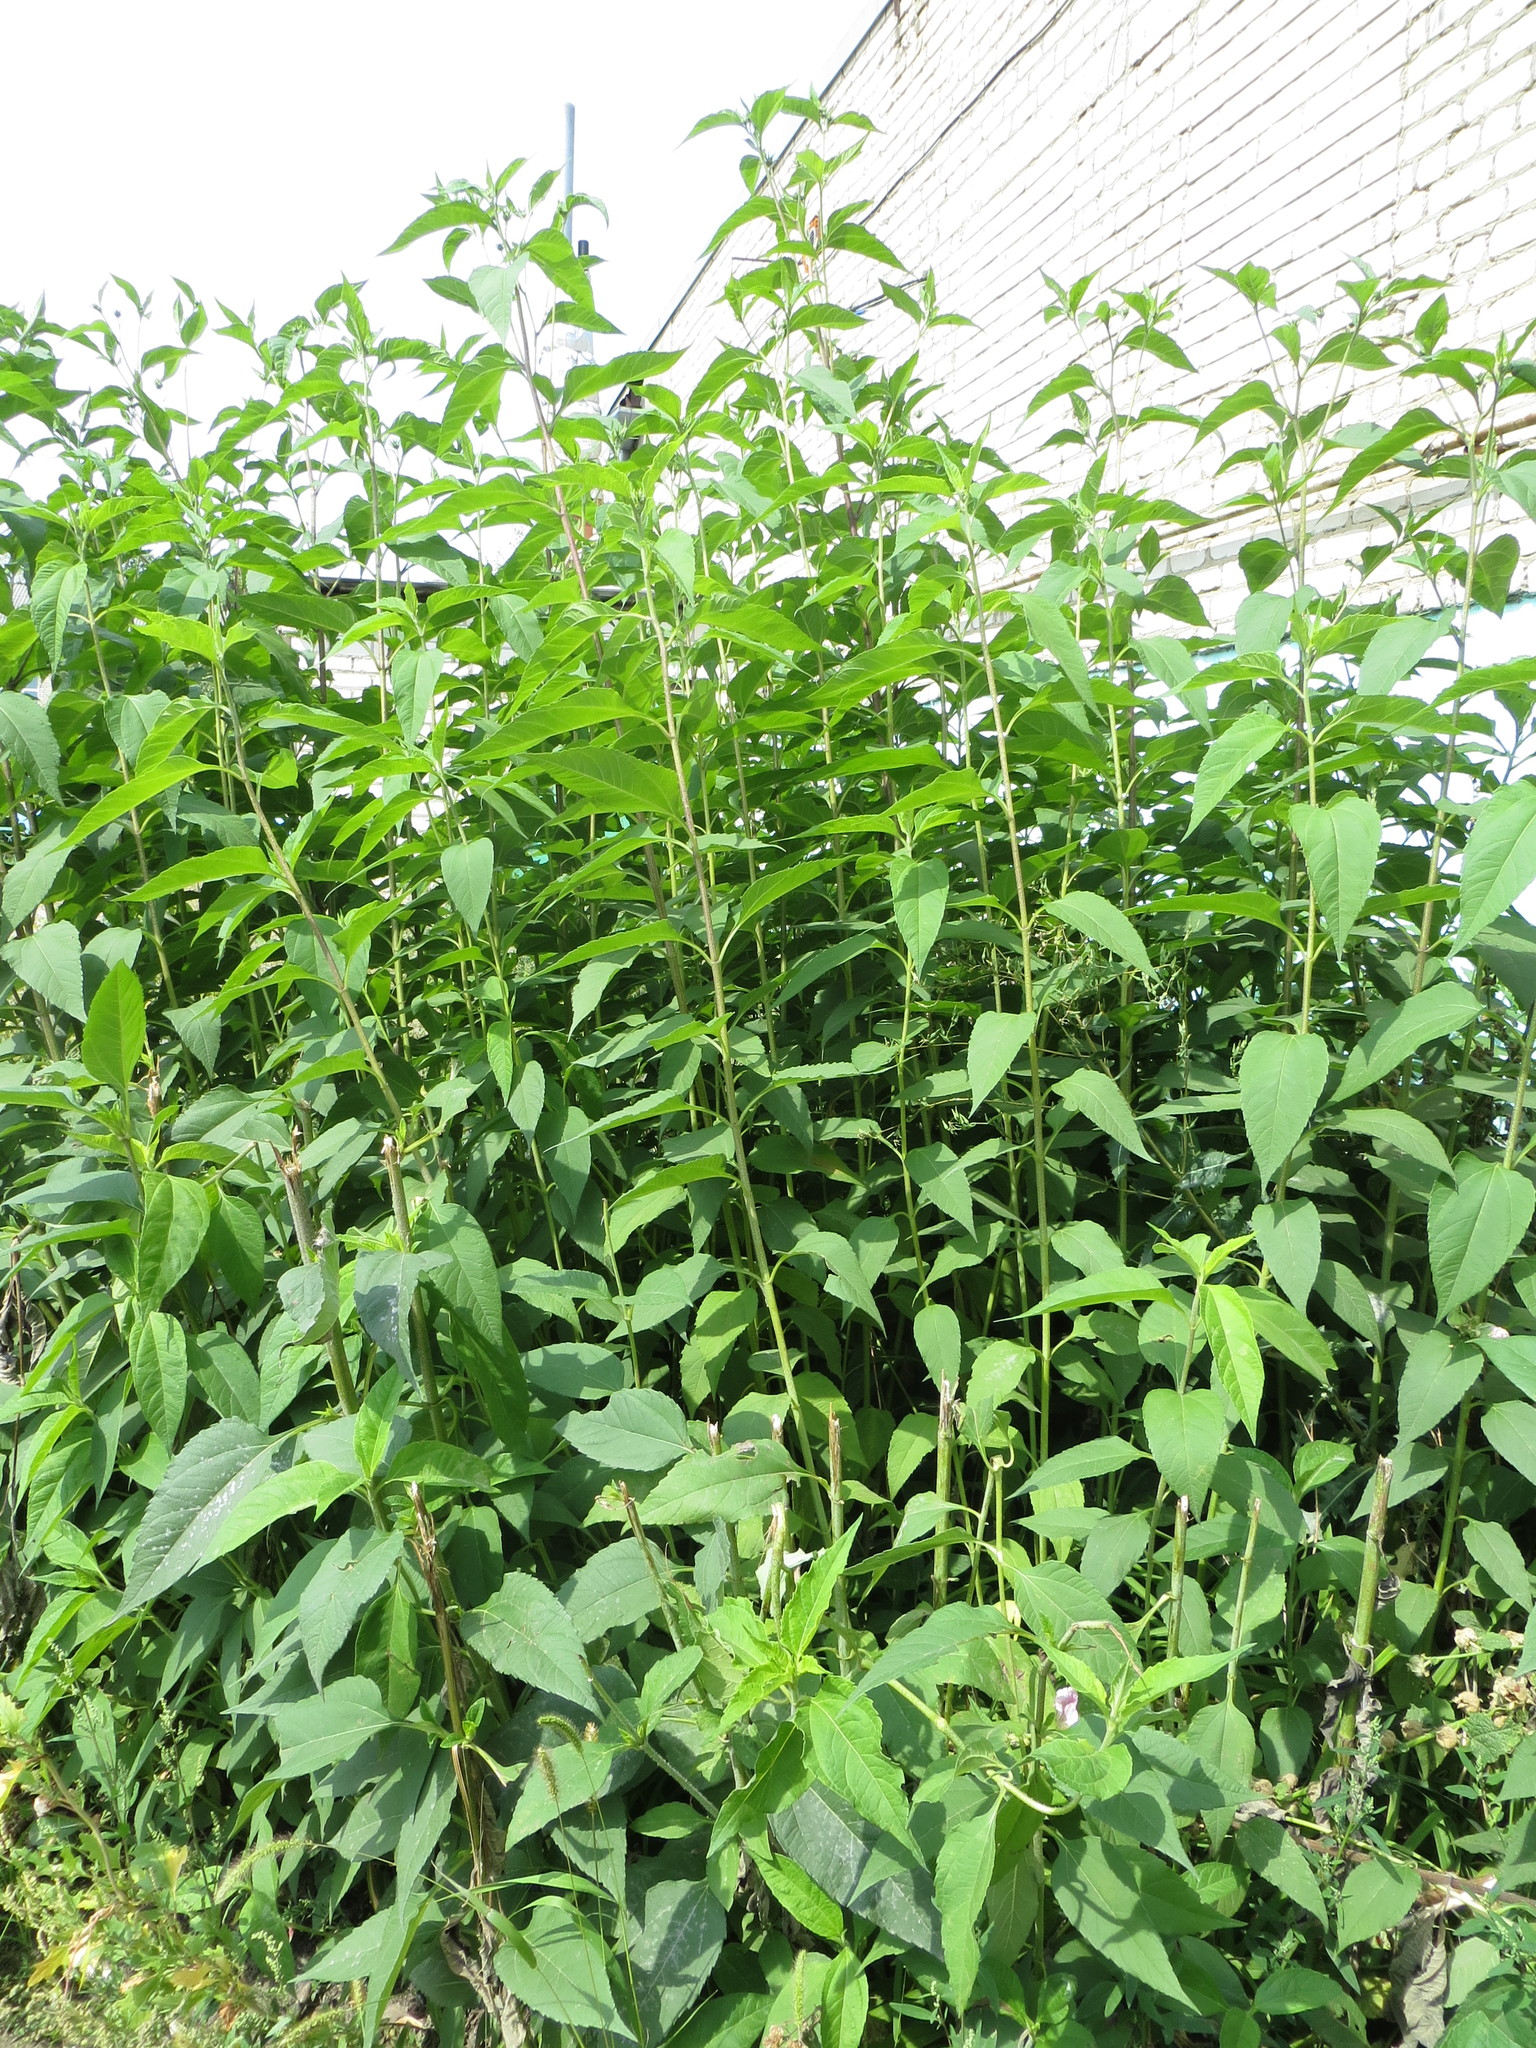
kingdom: Plantae
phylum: Tracheophyta
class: Magnoliopsida
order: Asterales
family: Asteraceae
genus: Helianthus
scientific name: Helianthus tuberosus
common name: Jerusalem artichoke
